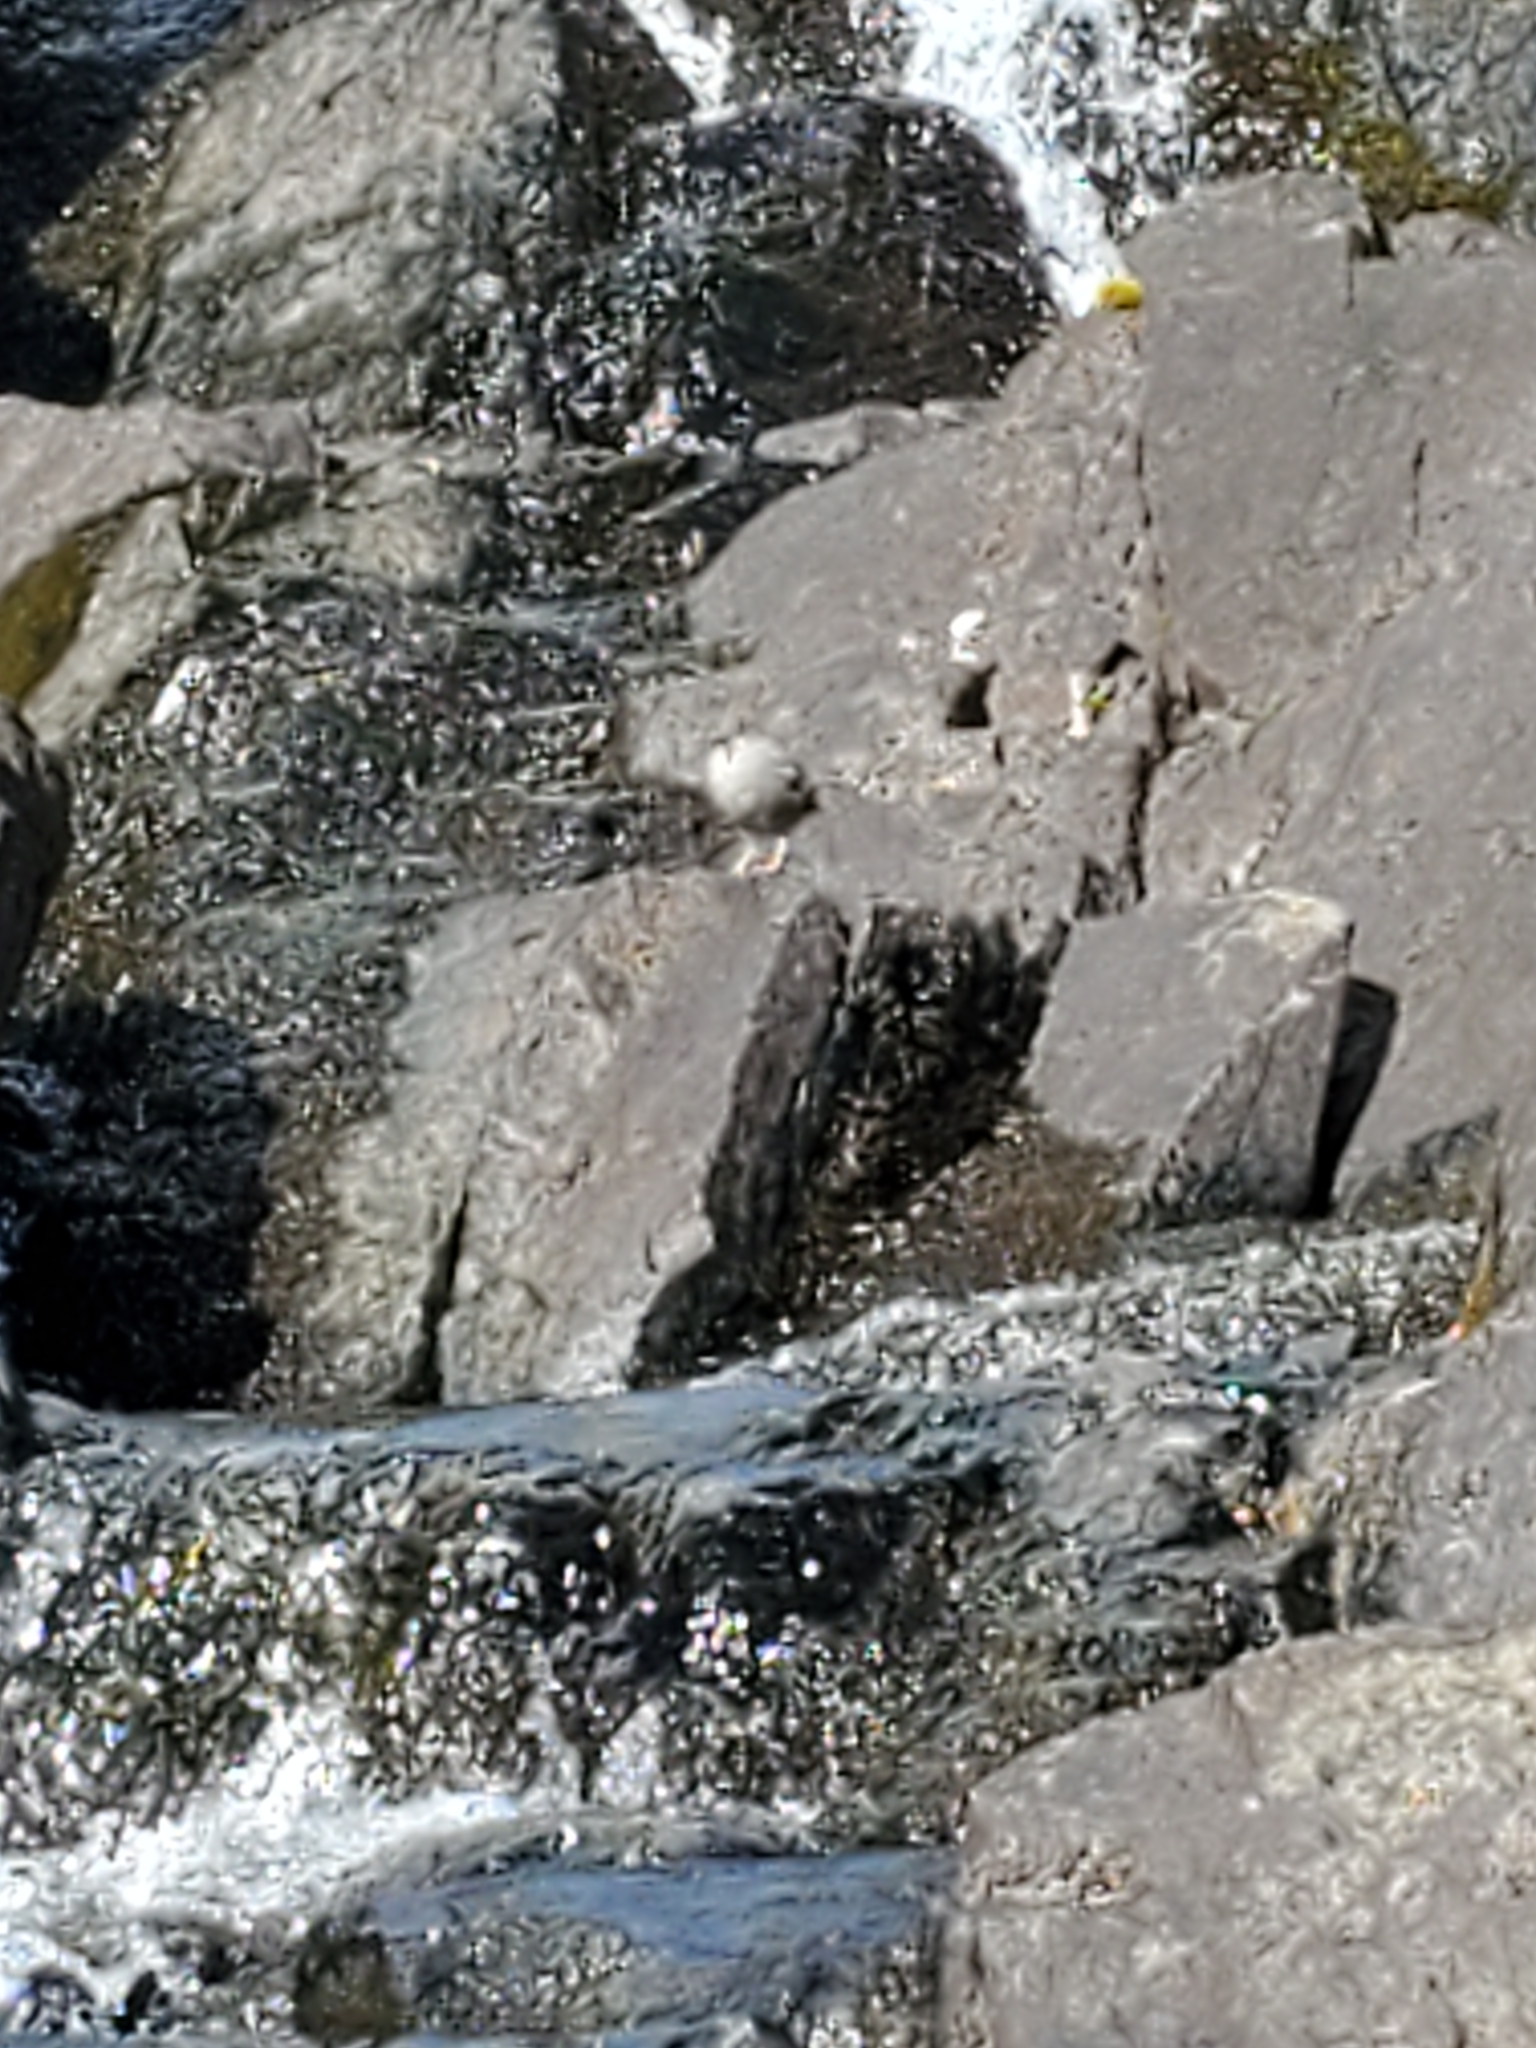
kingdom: Animalia
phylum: Chordata
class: Aves
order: Passeriformes
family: Cinclidae
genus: Cinclus
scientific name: Cinclus mexicanus
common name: American dipper
